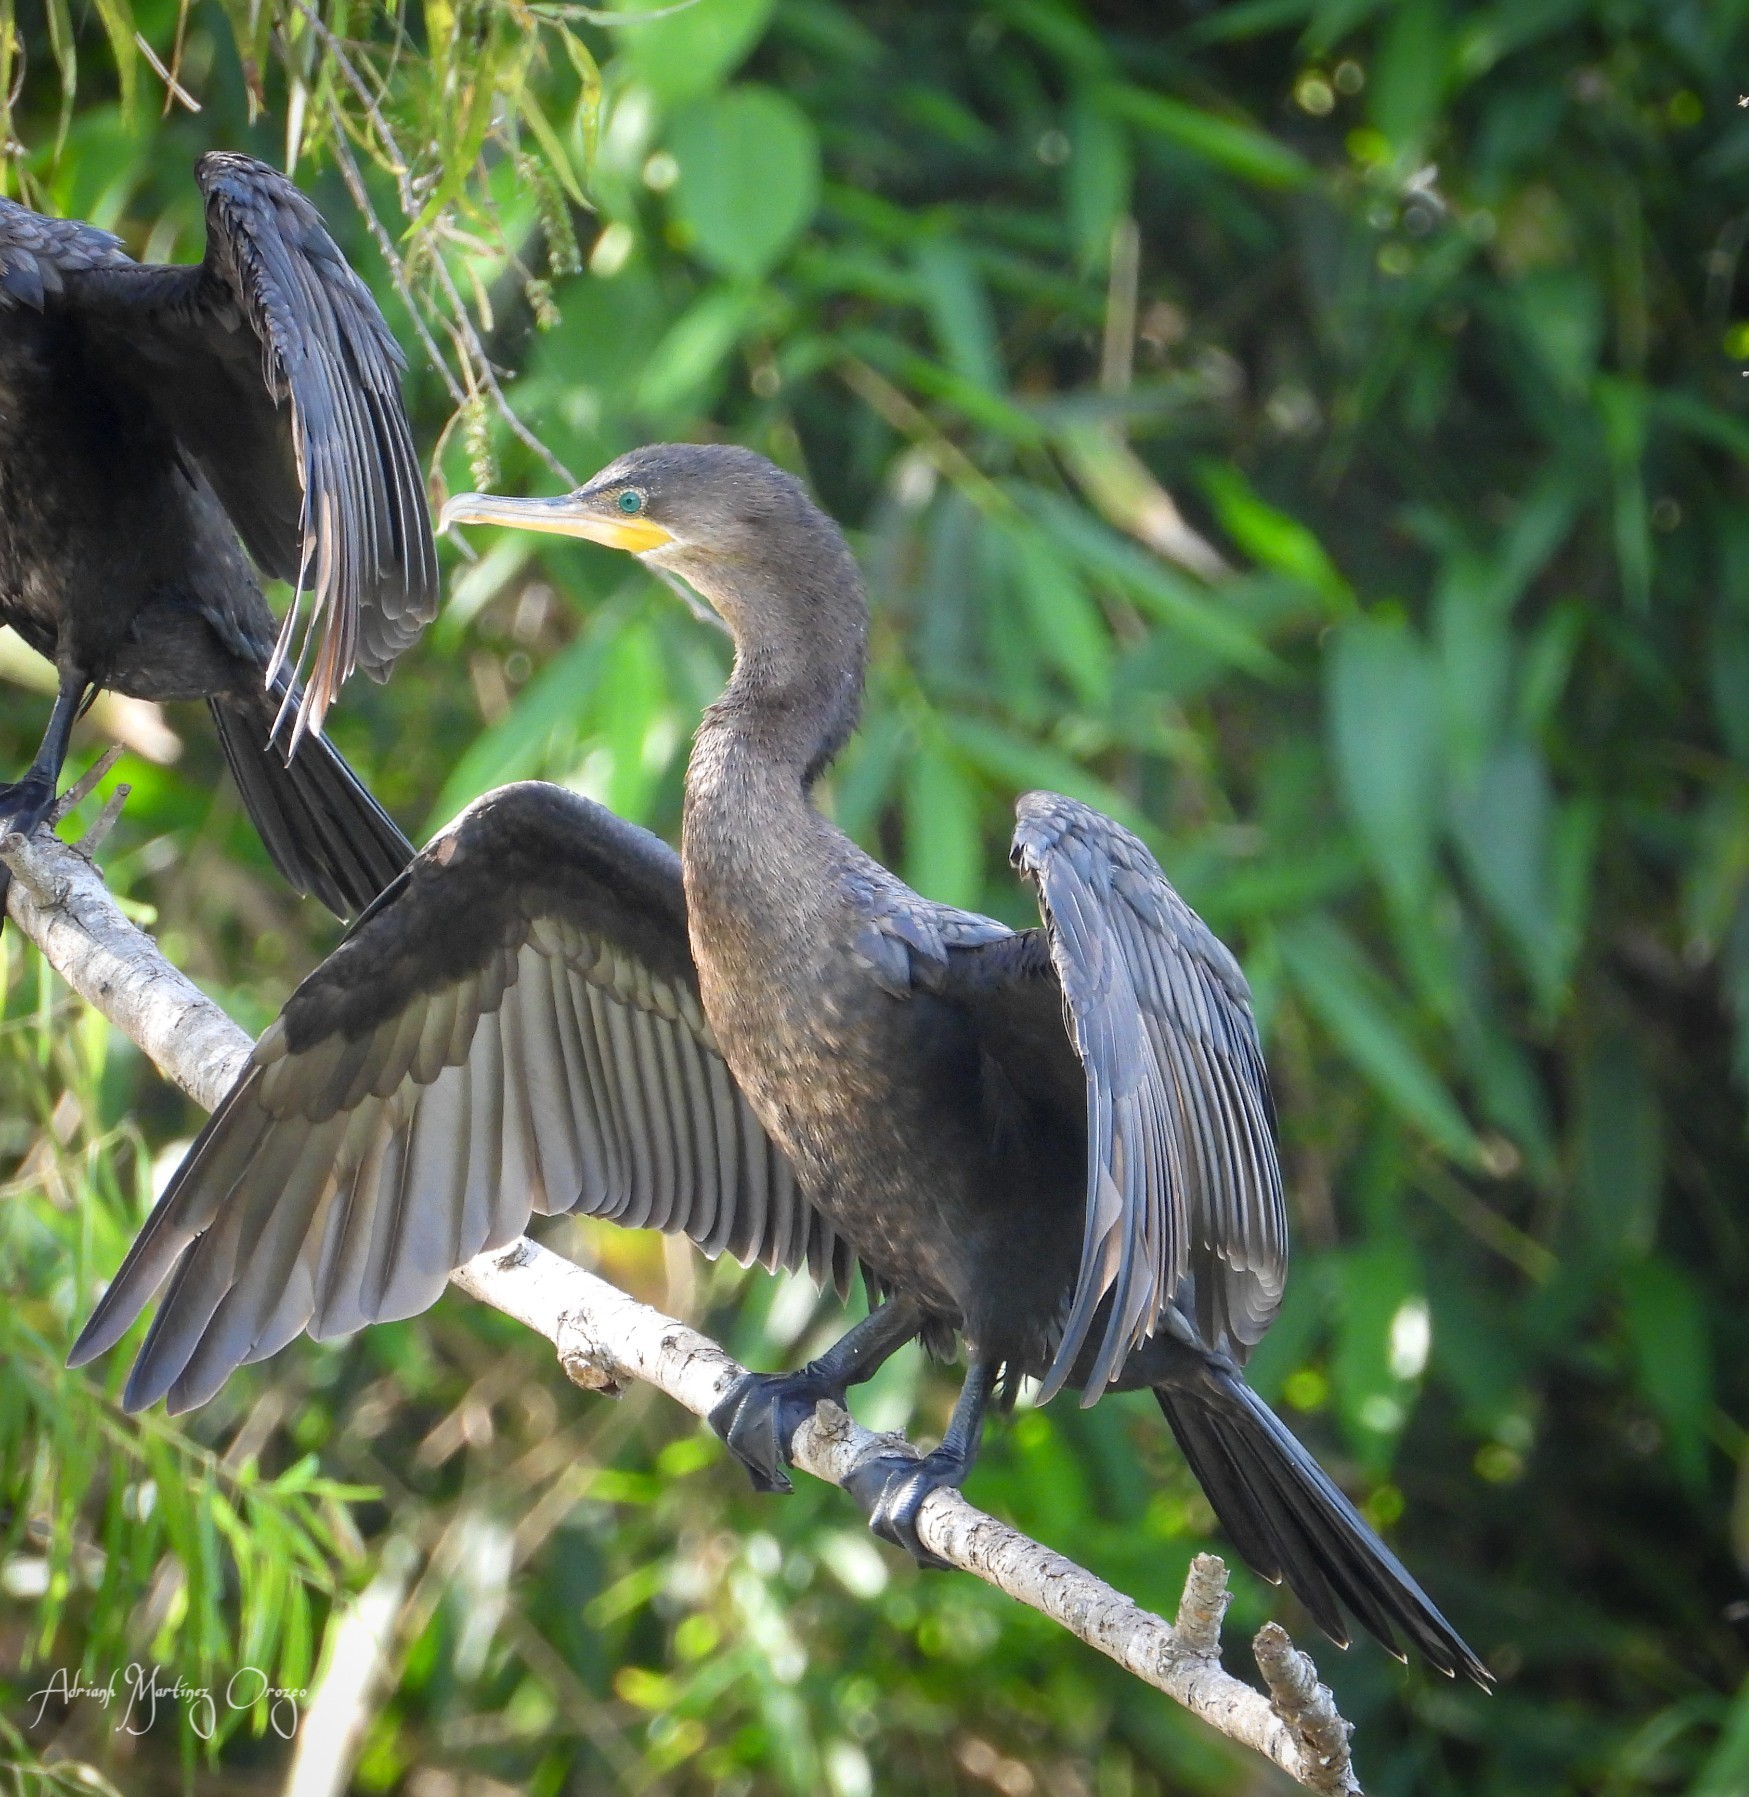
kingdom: Animalia
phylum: Chordata
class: Aves
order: Suliformes
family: Phalacrocoracidae
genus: Phalacrocorax
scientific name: Phalacrocorax brasilianus
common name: Neotropic cormorant
